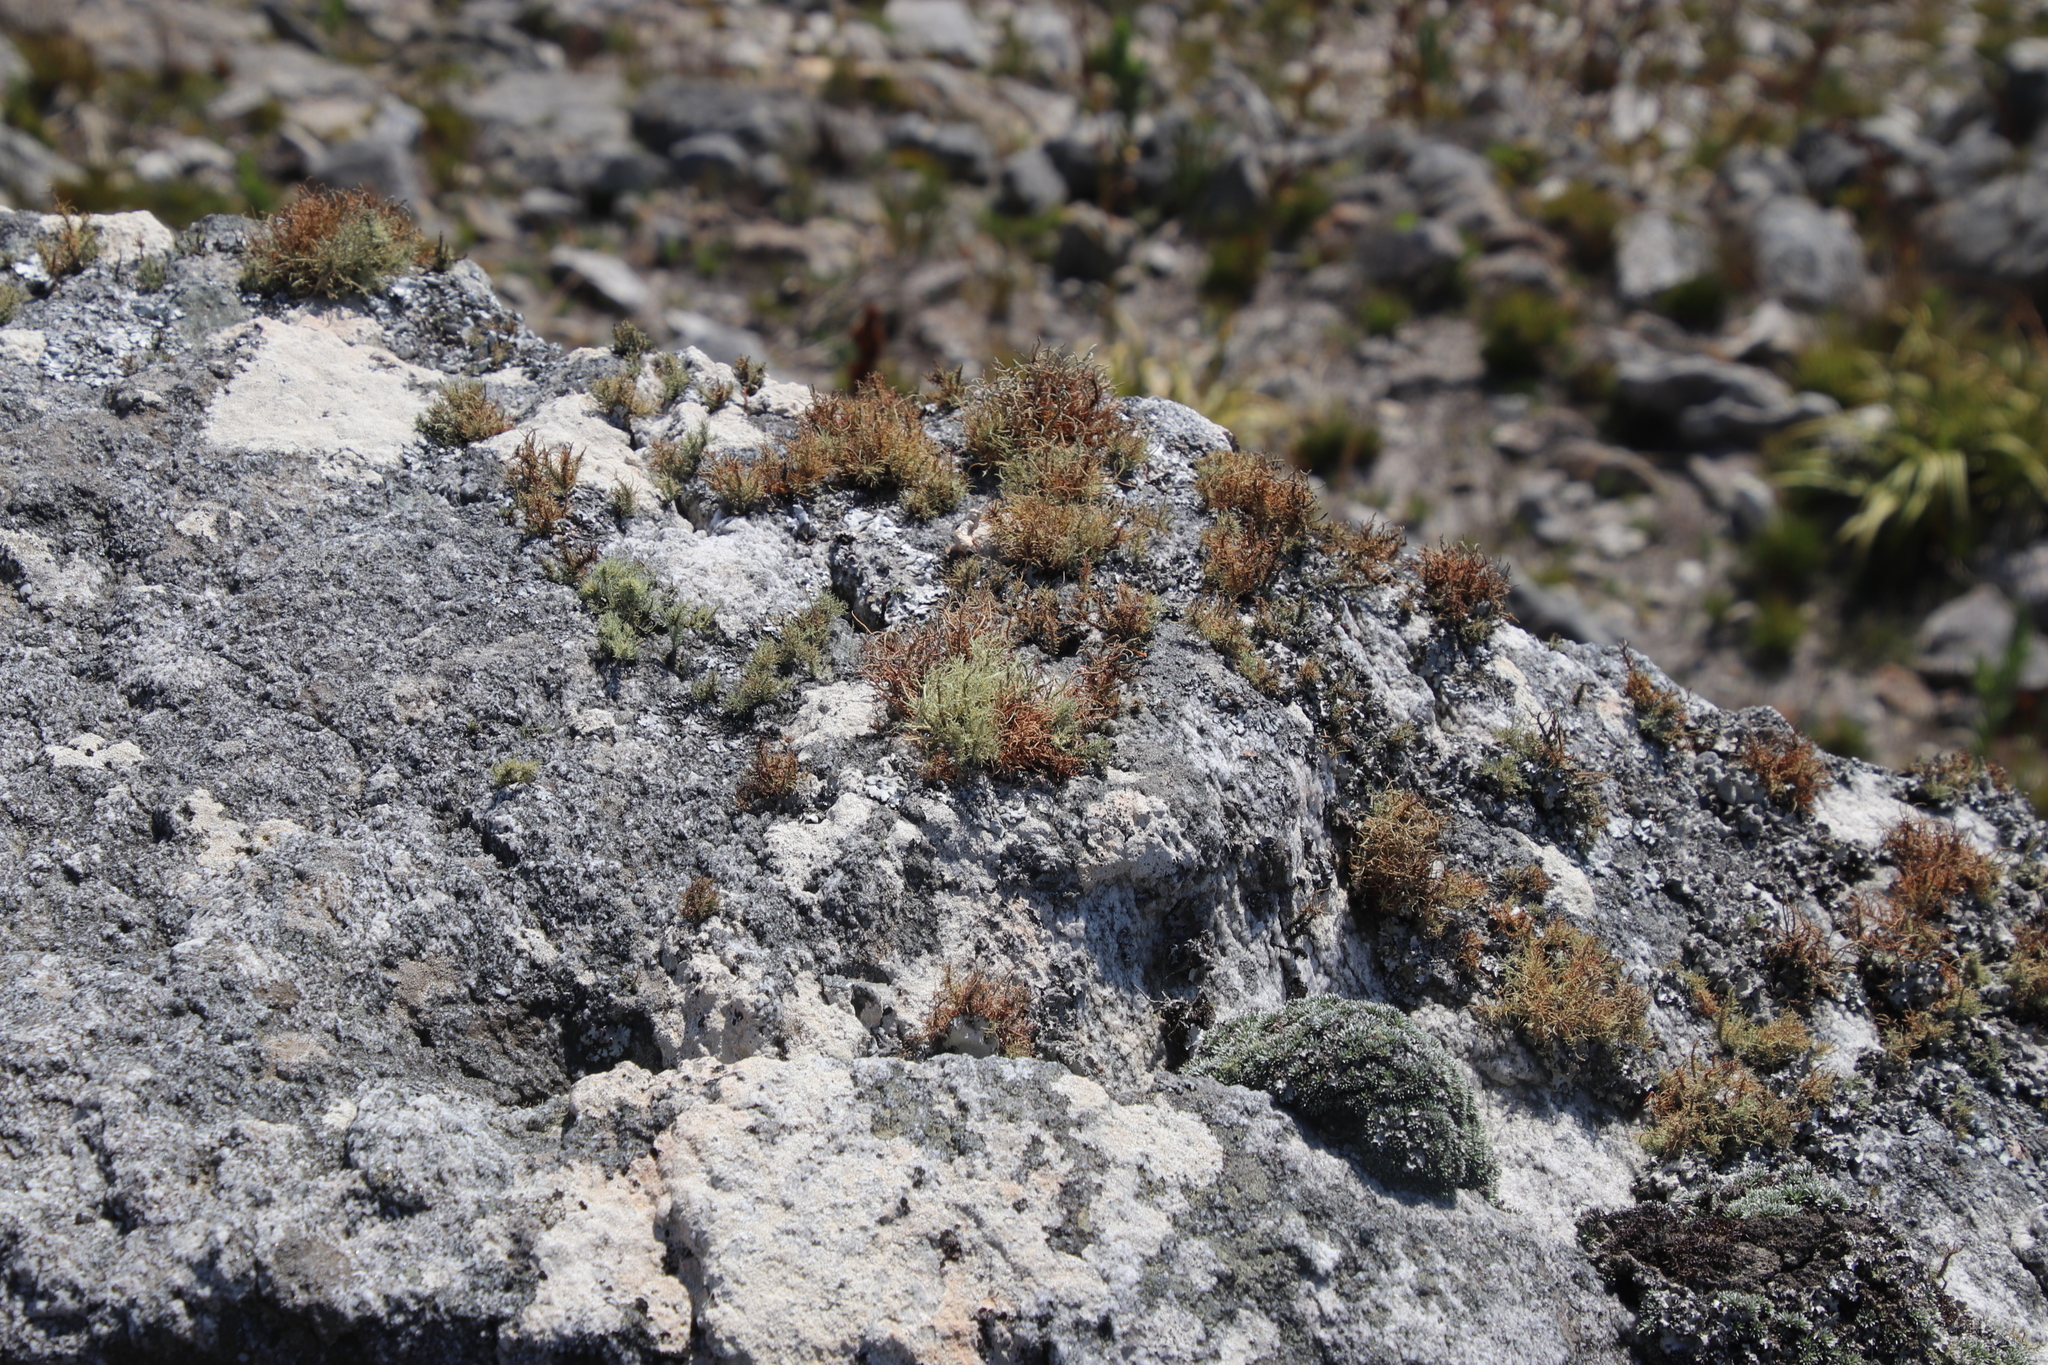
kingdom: Fungi
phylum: Ascomycota
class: Lecanoromycetes
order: Lecanorales
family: Parmeliaceae
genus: Usnea
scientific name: Usnea maculata
